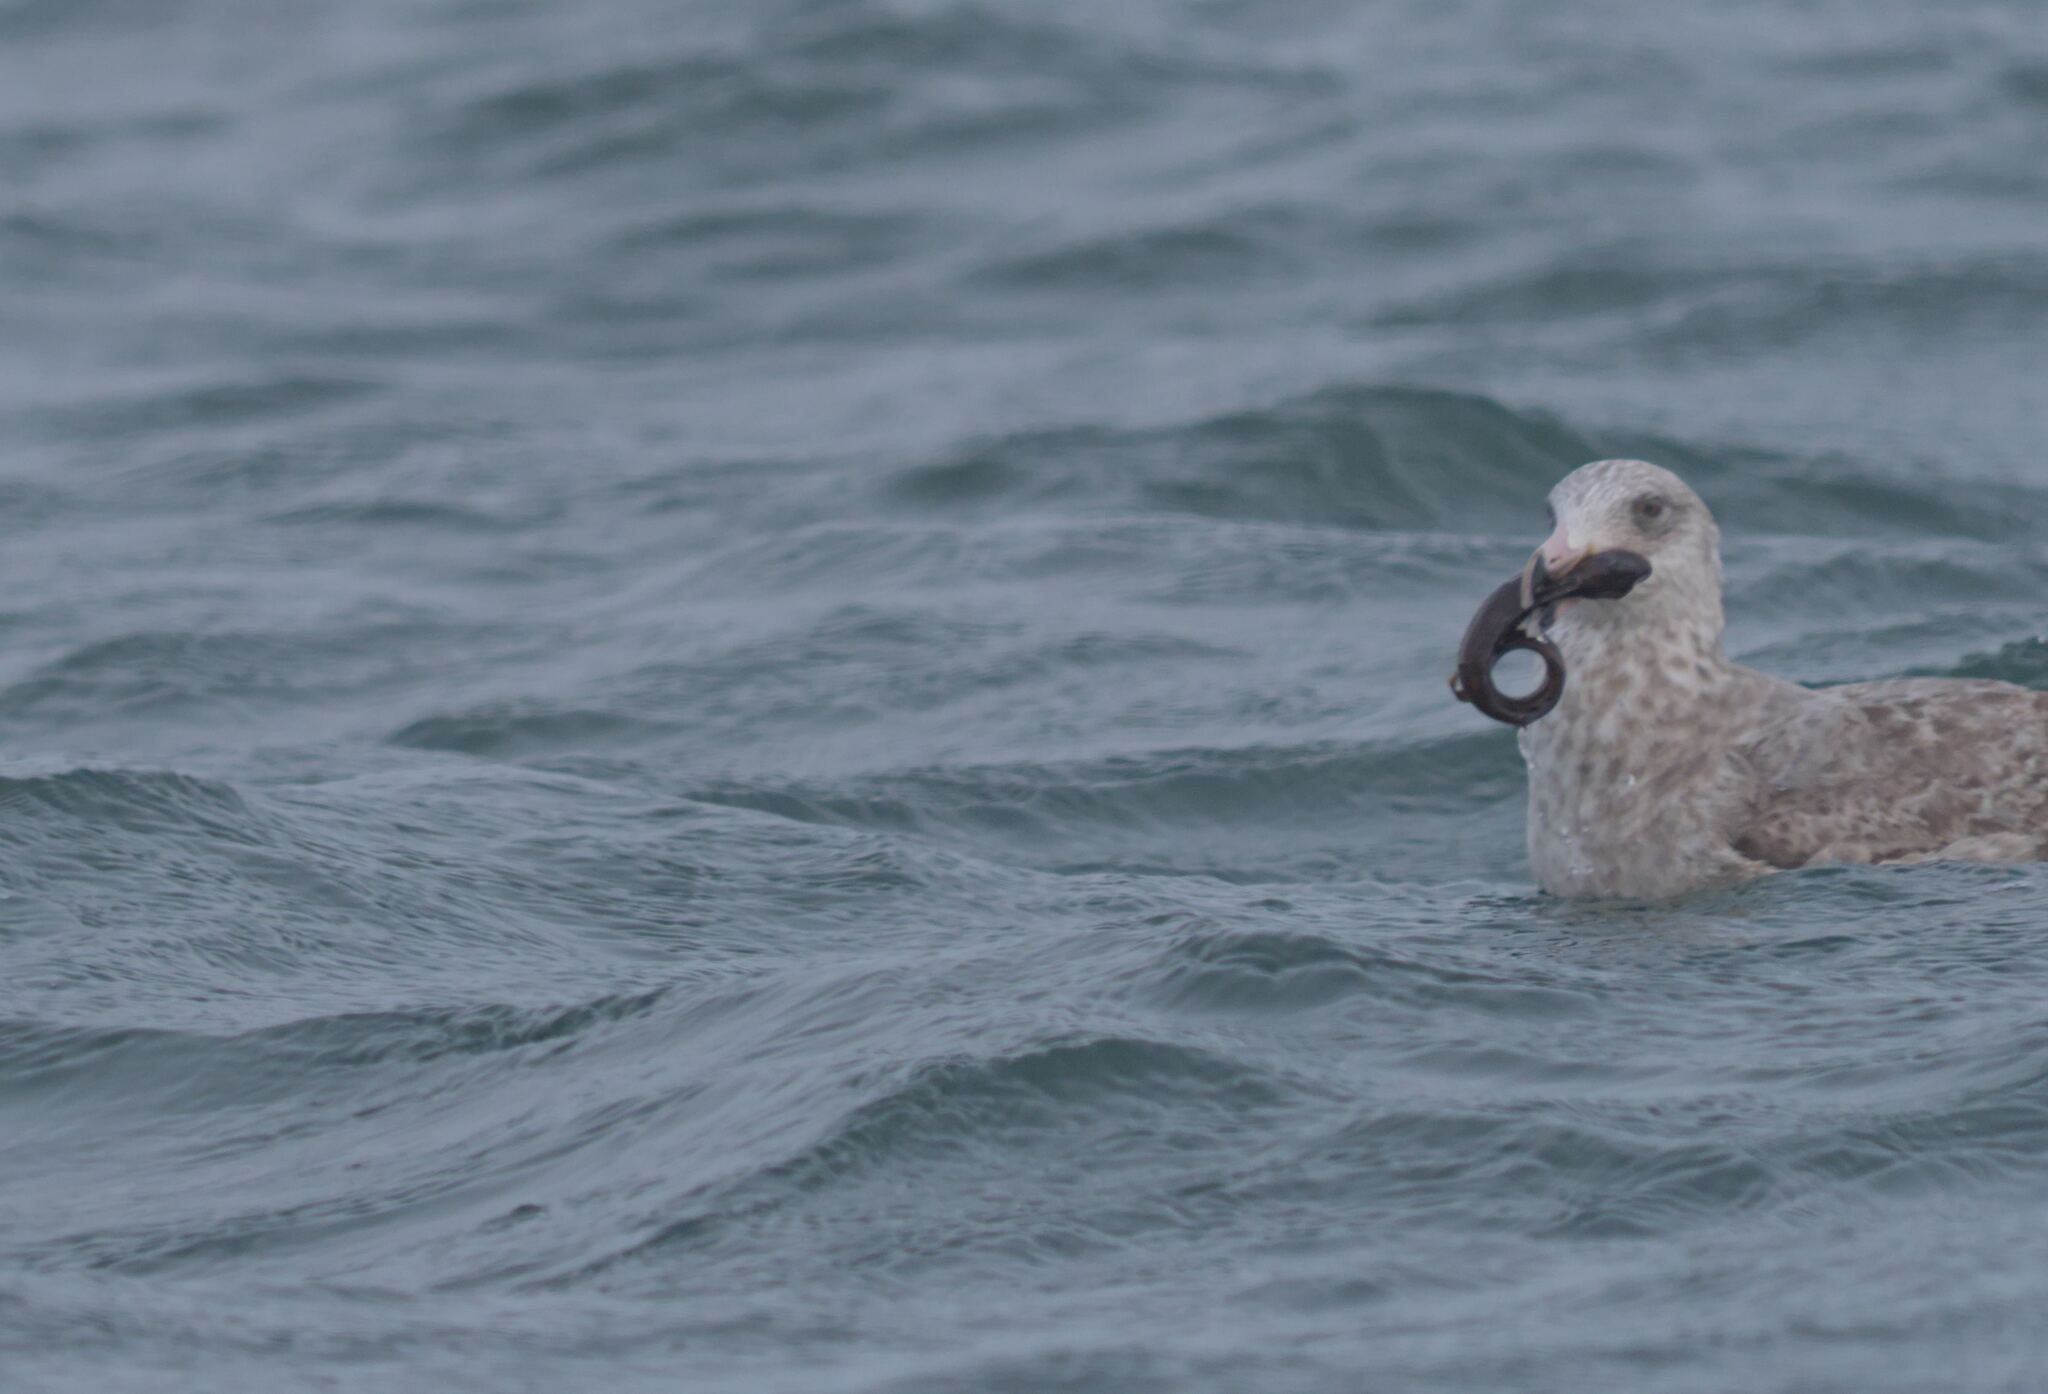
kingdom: Animalia
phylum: Chordata
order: Perciformes
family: Zoarcidae
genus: Zoarces
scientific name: Zoarces americanus
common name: Mother-of-eels
